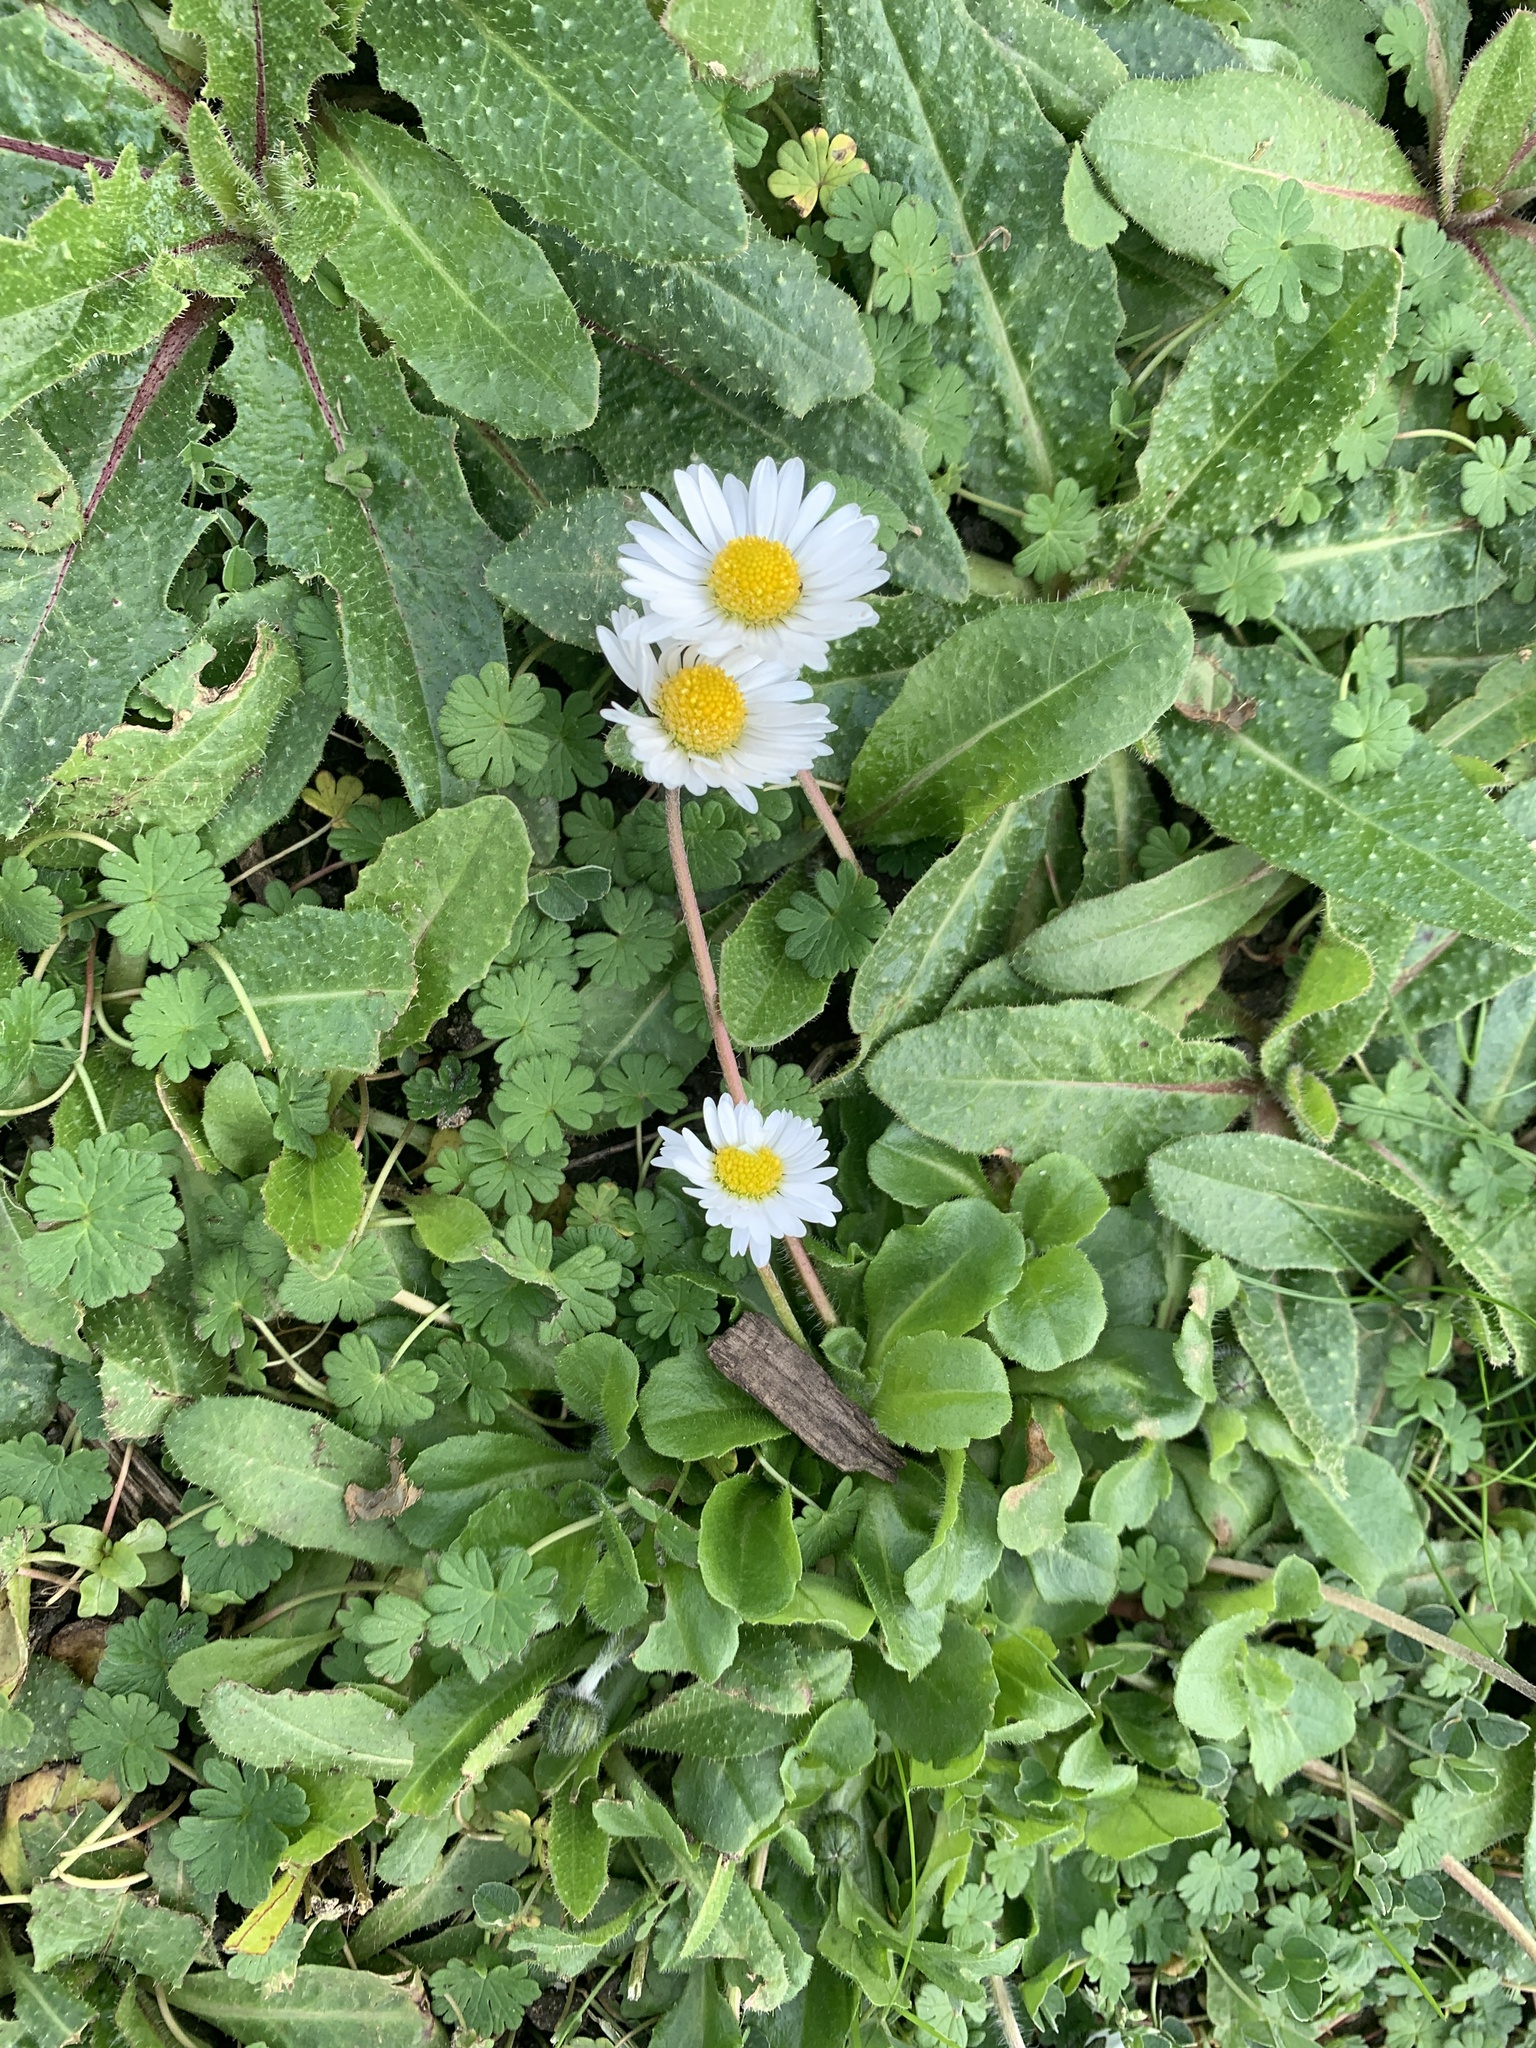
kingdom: Plantae
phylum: Tracheophyta
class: Magnoliopsida
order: Asterales
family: Asteraceae
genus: Bellis
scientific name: Bellis perennis
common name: Lawndaisy
